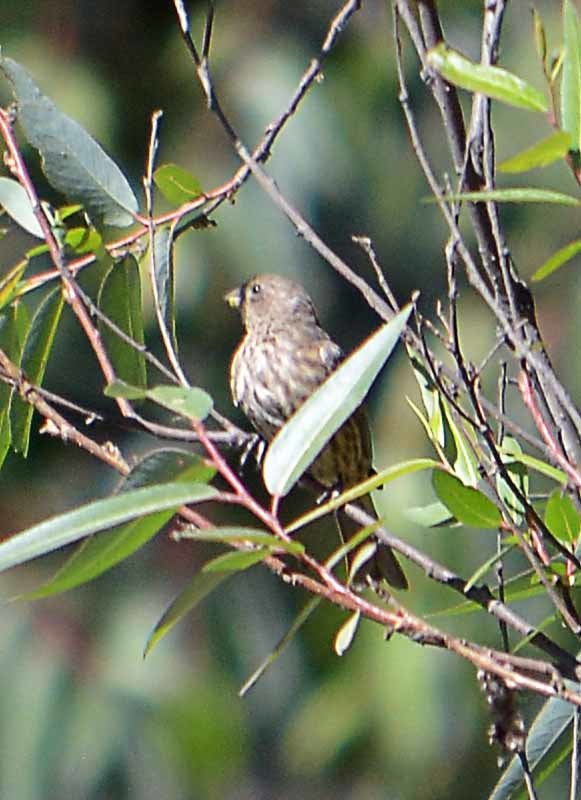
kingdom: Animalia
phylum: Chordata
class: Aves
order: Passeriformes
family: Fringillidae
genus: Haemorhous
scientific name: Haemorhous mexicanus
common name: House finch
